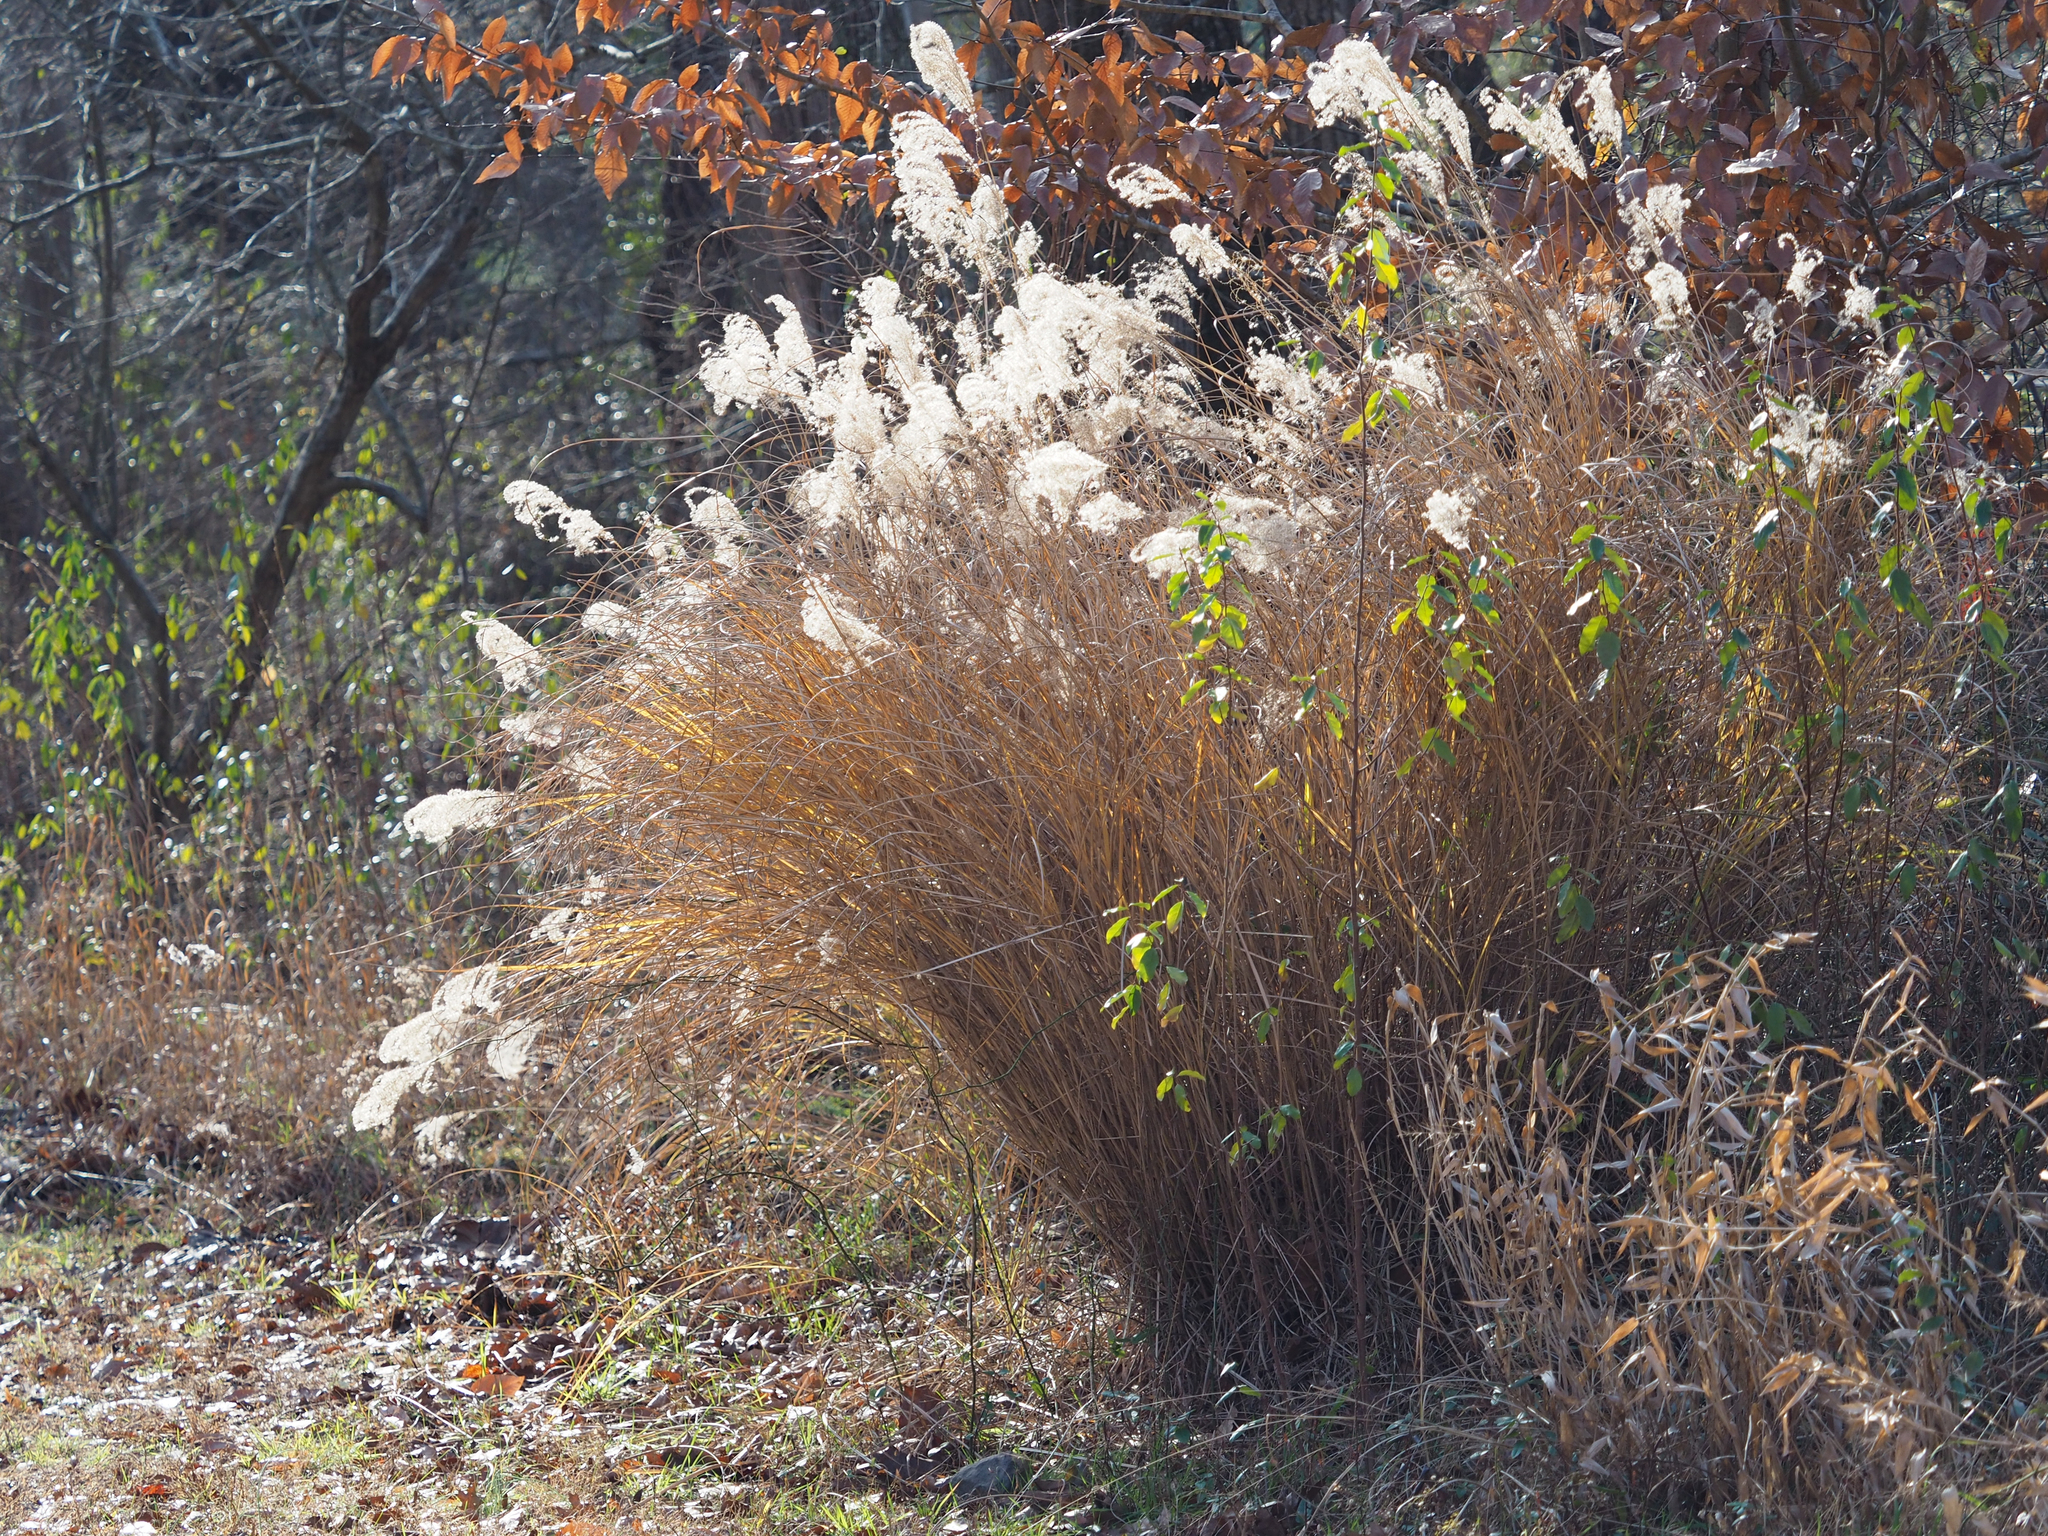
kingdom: Plantae
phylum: Tracheophyta
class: Liliopsida
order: Poales
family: Poaceae
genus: Miscanthus
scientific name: Miscanthus sinensis
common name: Chinese silvergrass
